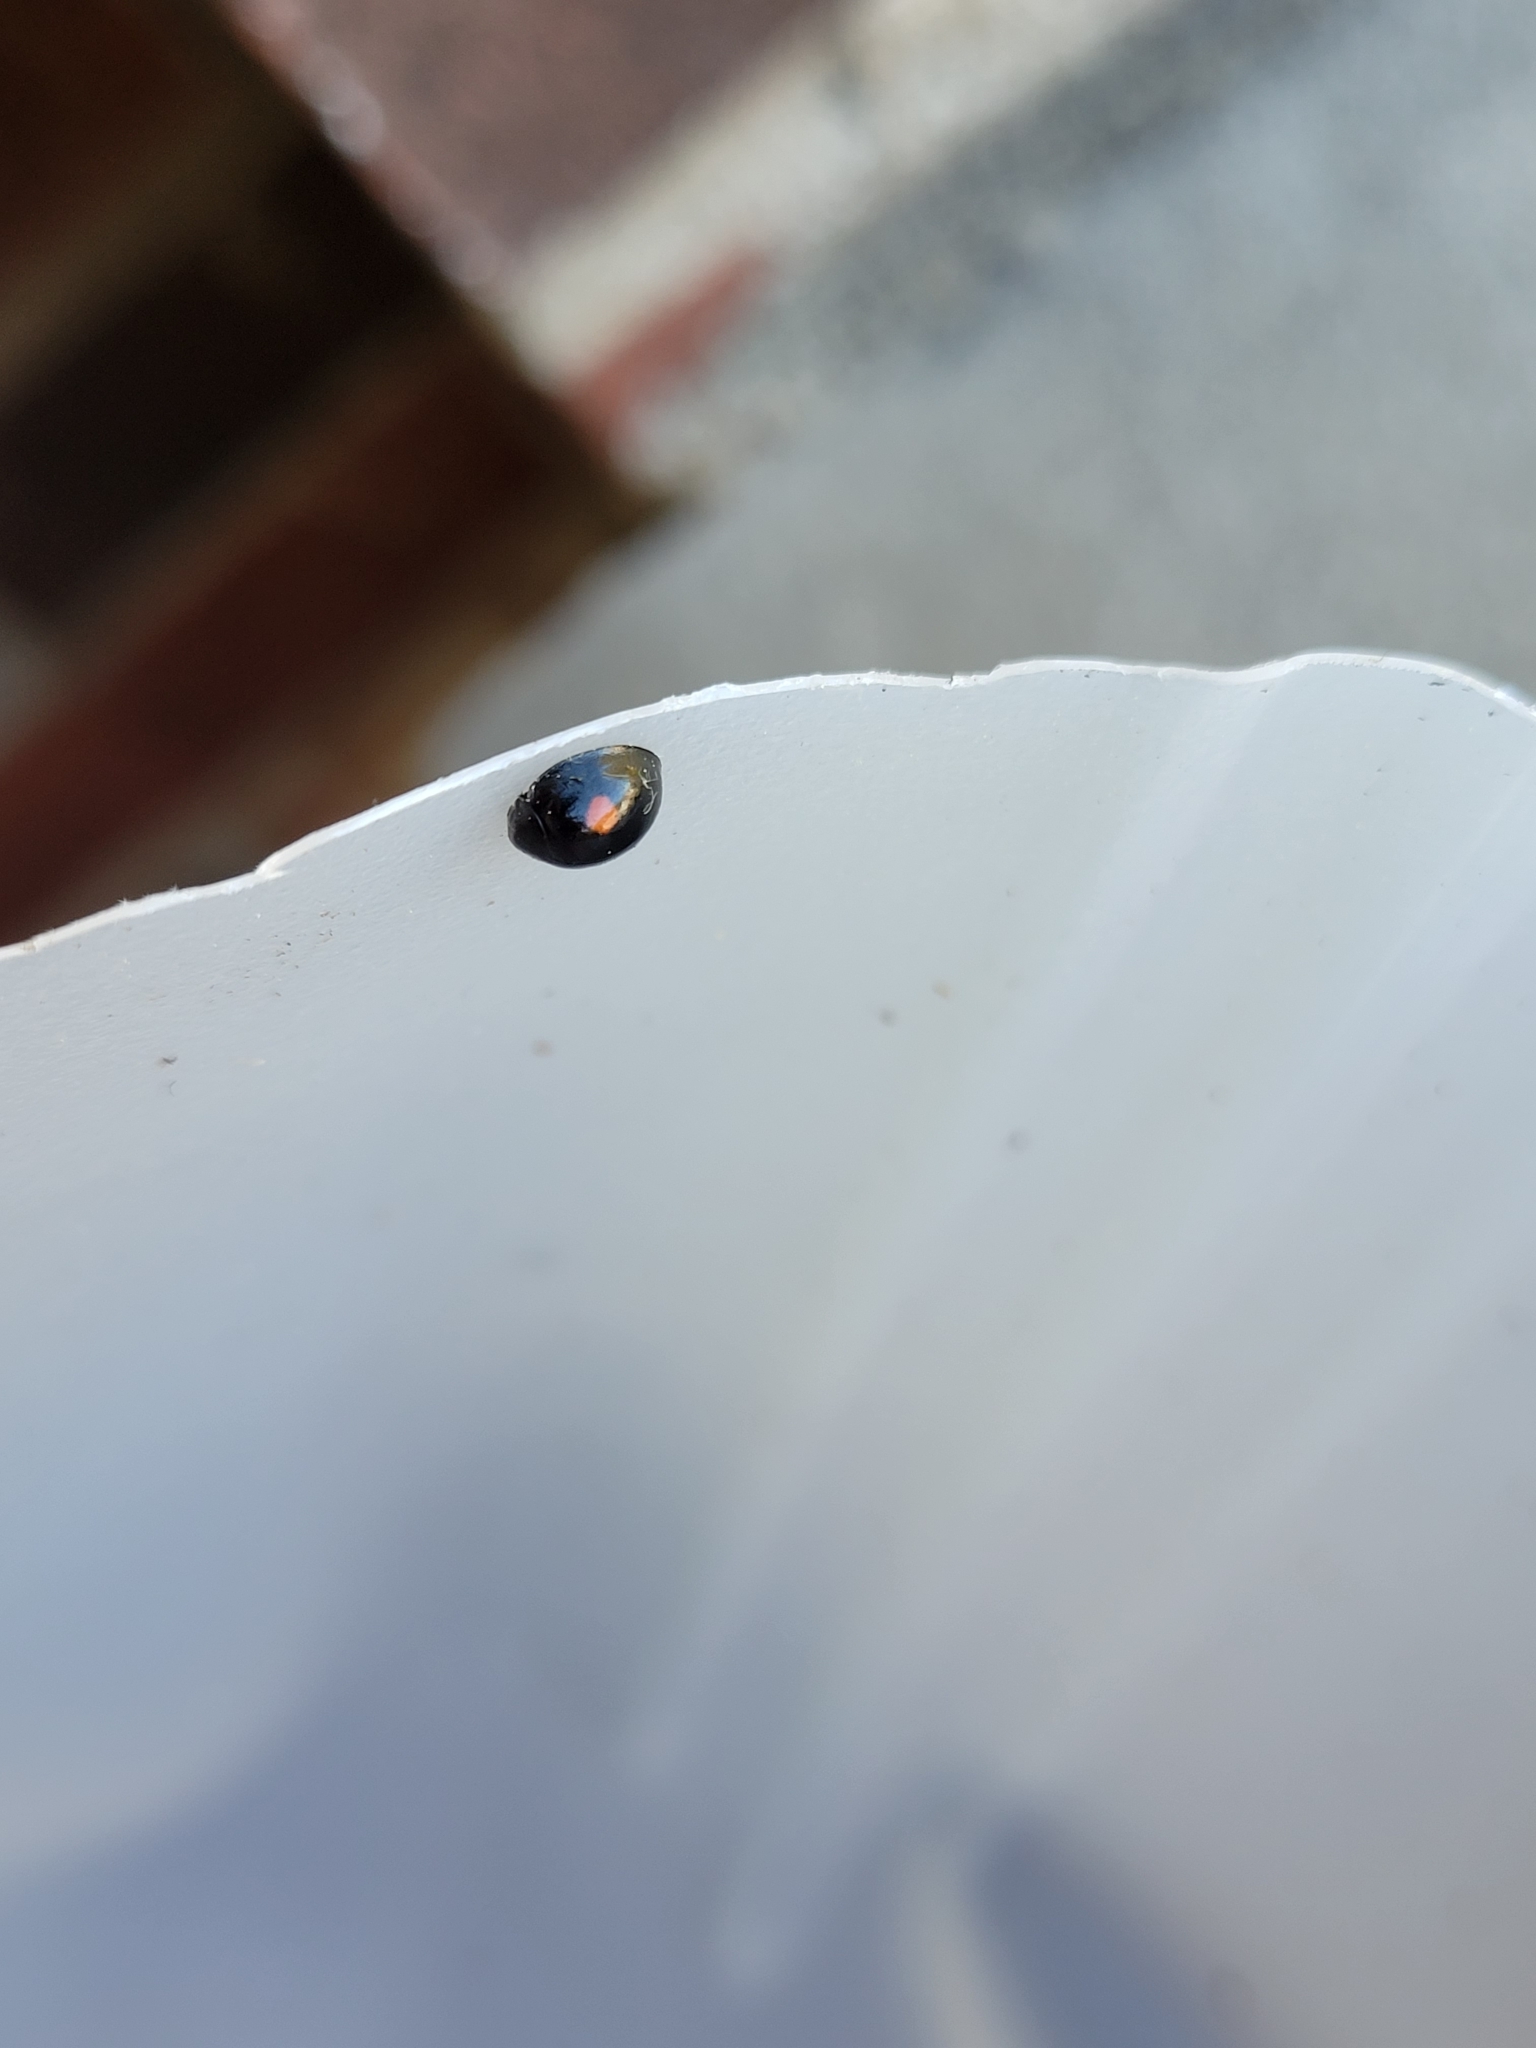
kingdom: Animalia
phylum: Arthropoda
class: Insecta
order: Coleoptera
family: Coccinellidae
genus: Chilocorus
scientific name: Chilocorus stigma
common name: Twicestabbed lady beetle
